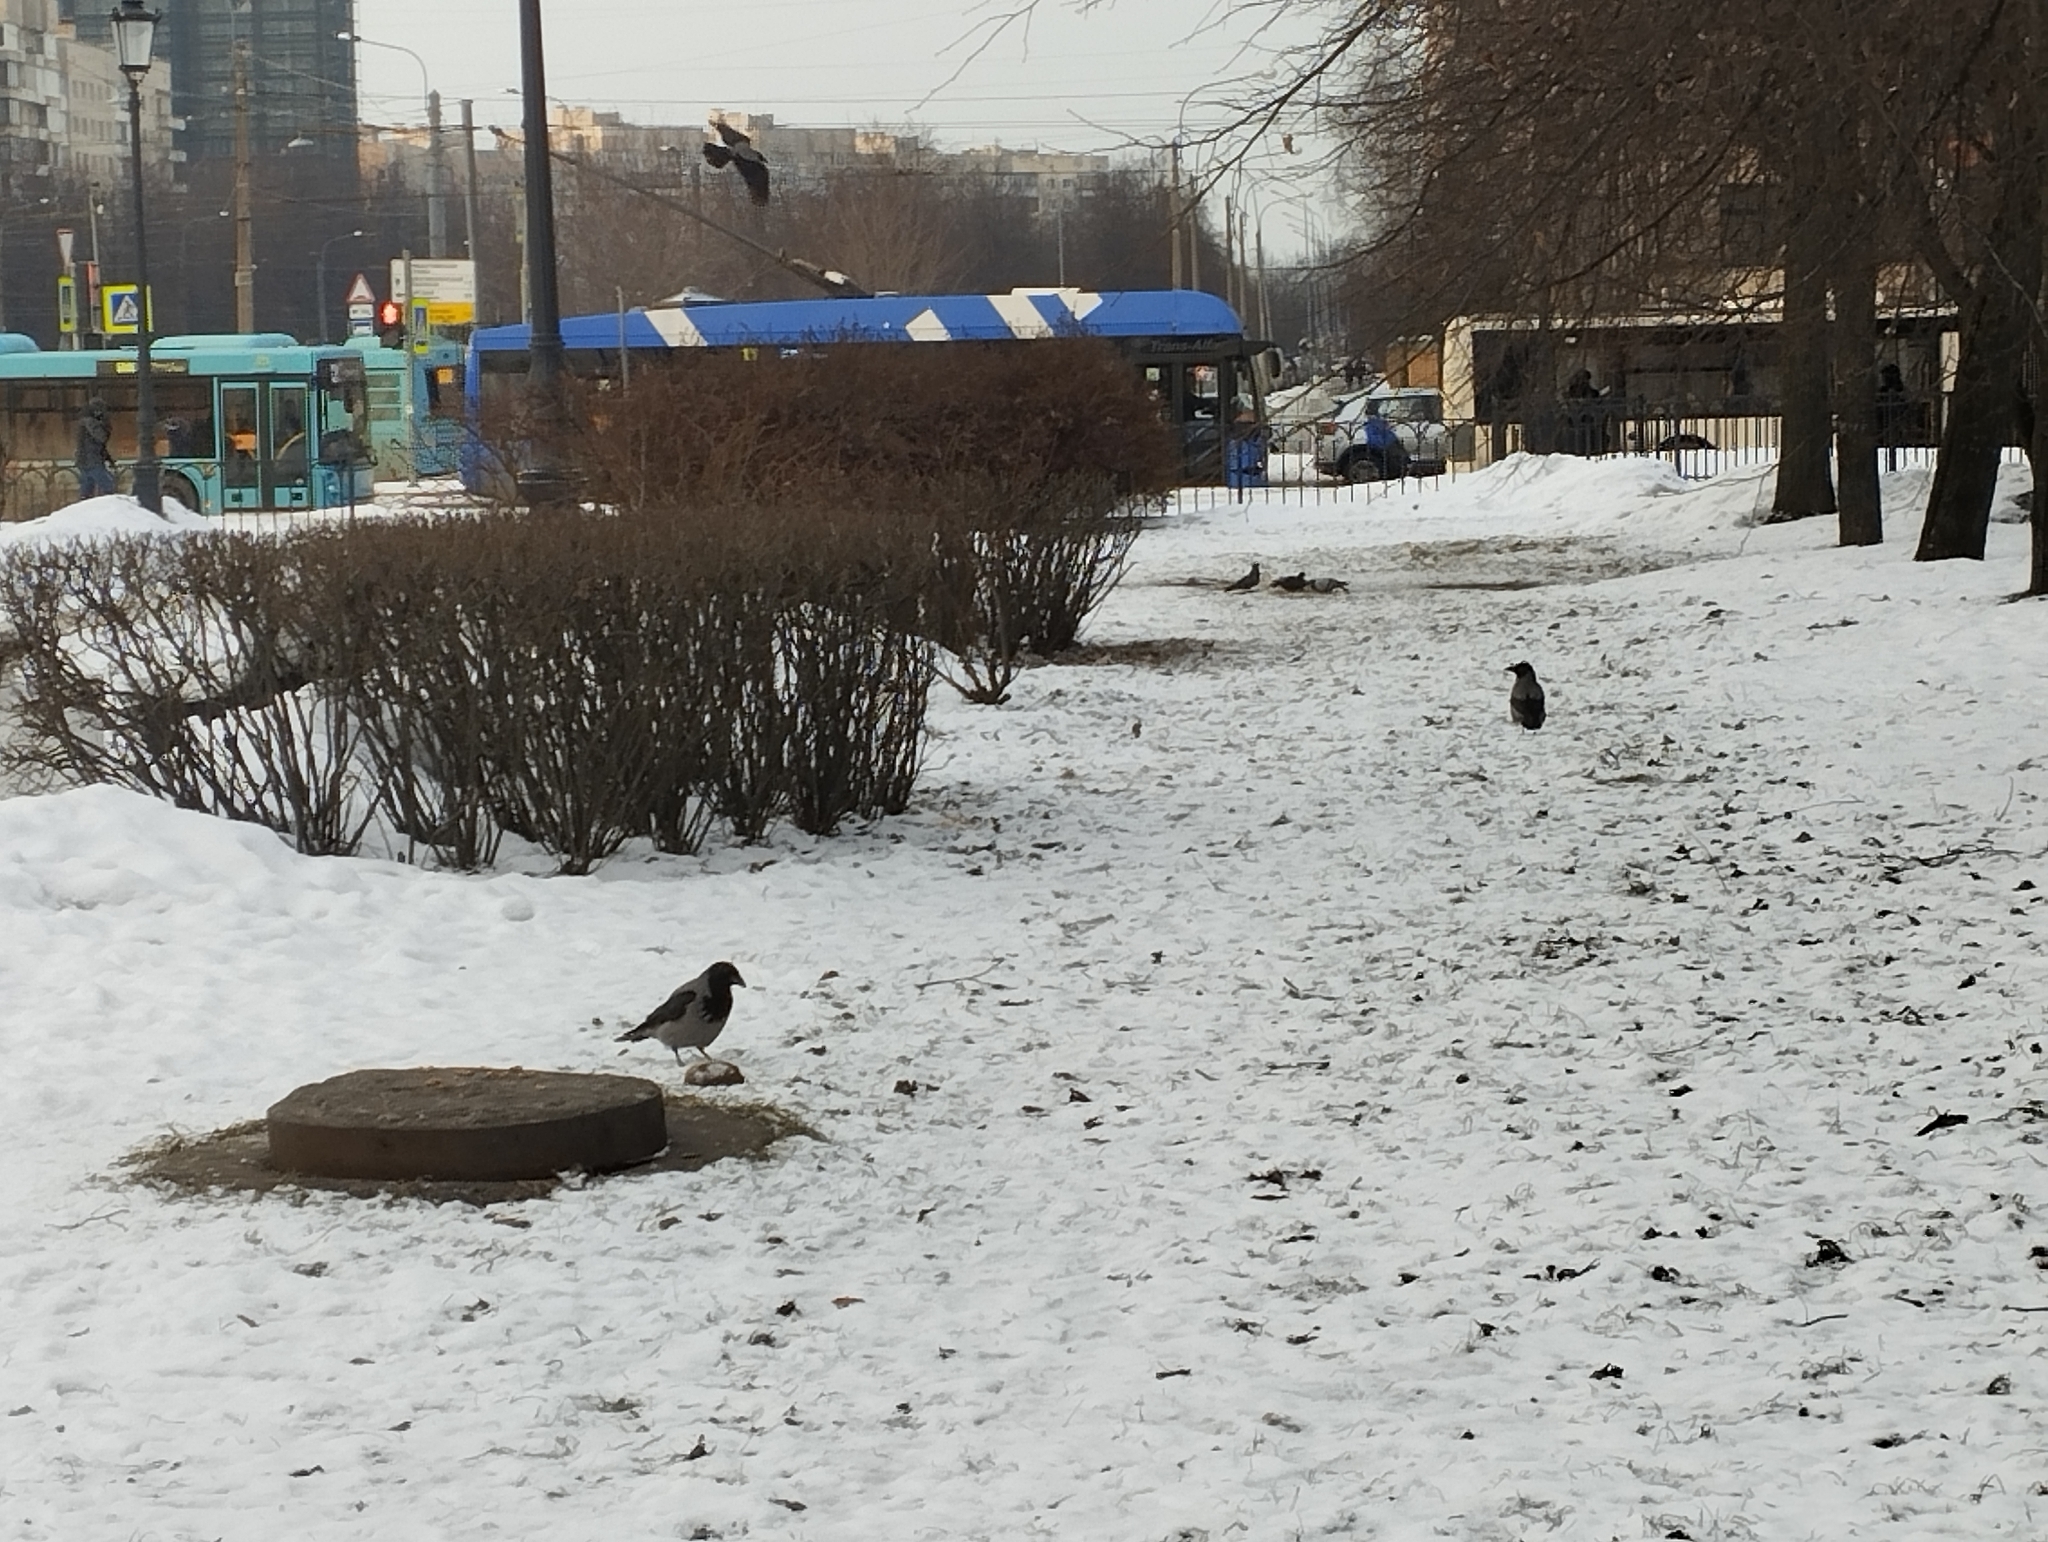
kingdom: Animalia
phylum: Chordata
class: Aves
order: Passeriformes
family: Corvidae
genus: Corvus
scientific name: Corvus cornix
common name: Hooded crow
